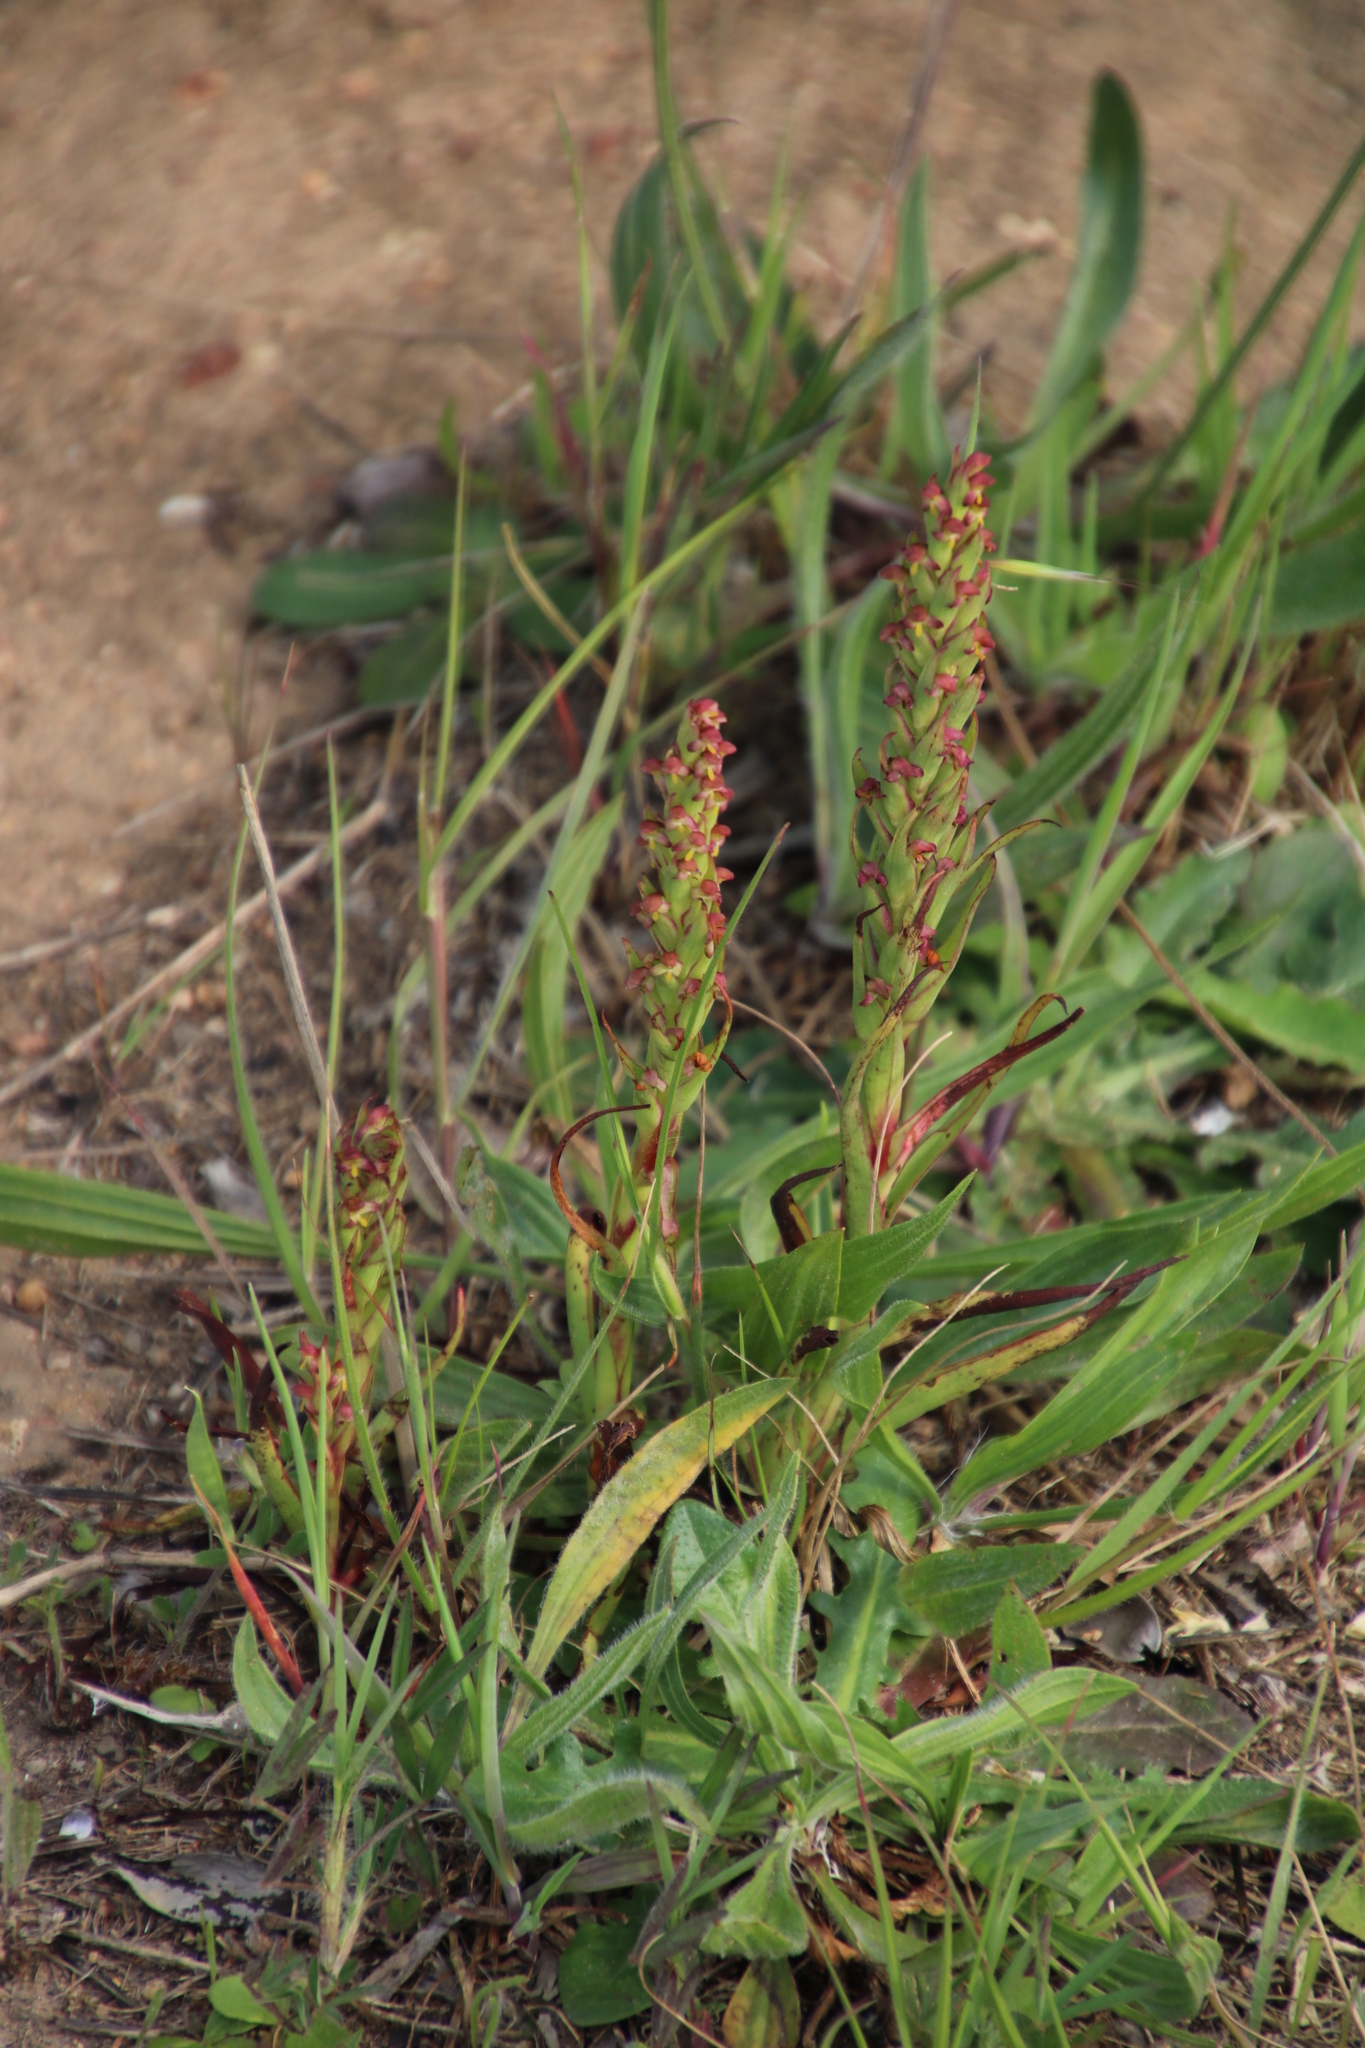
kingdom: Plantae
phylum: Tracheophyta
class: Liliopsida
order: Asparagales
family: Orchidaceae
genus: Disa
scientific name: Disa bracteata
